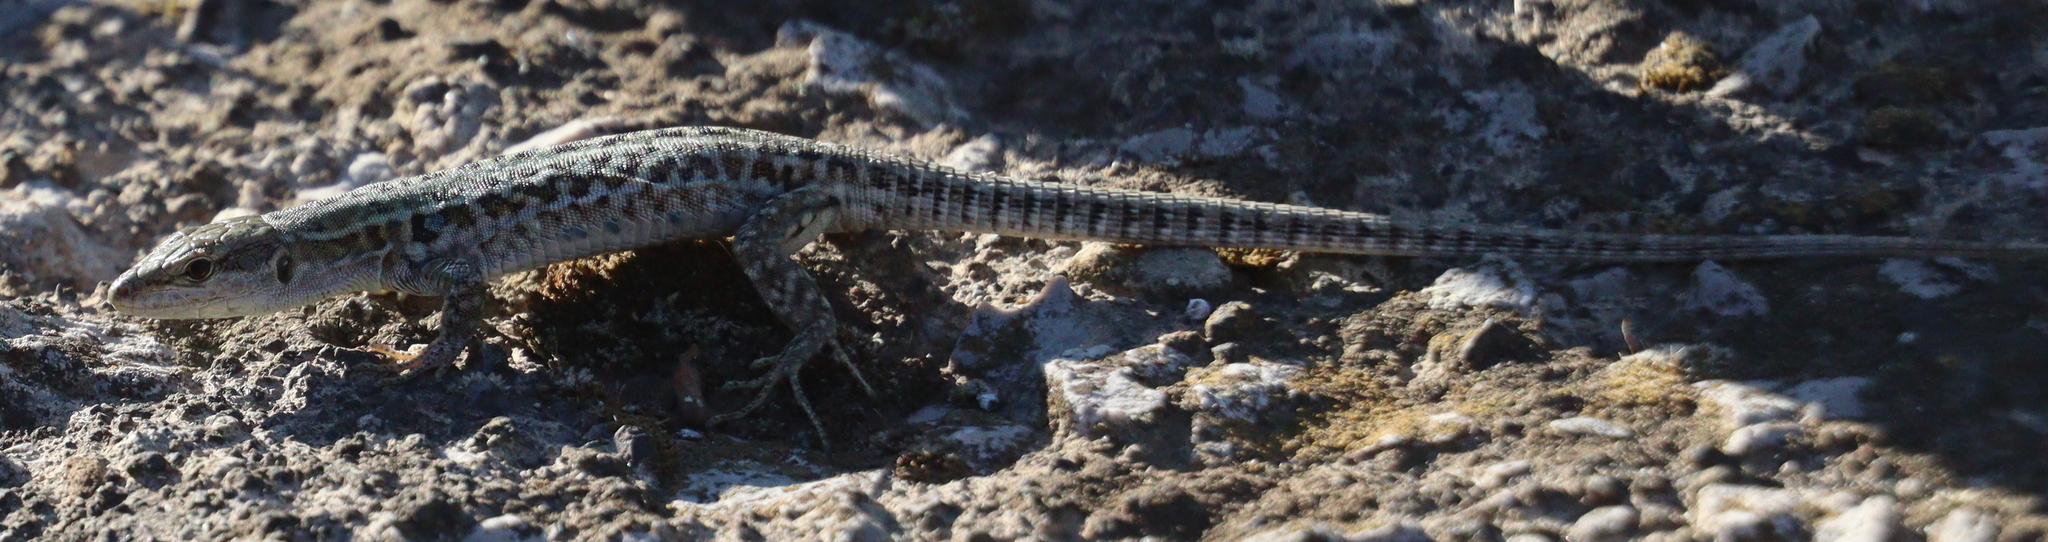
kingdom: Animalia
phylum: Chordata
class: Squamata
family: Lacertidae
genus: Podarcis
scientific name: Podarcis siculus
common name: Italian wall lizard
